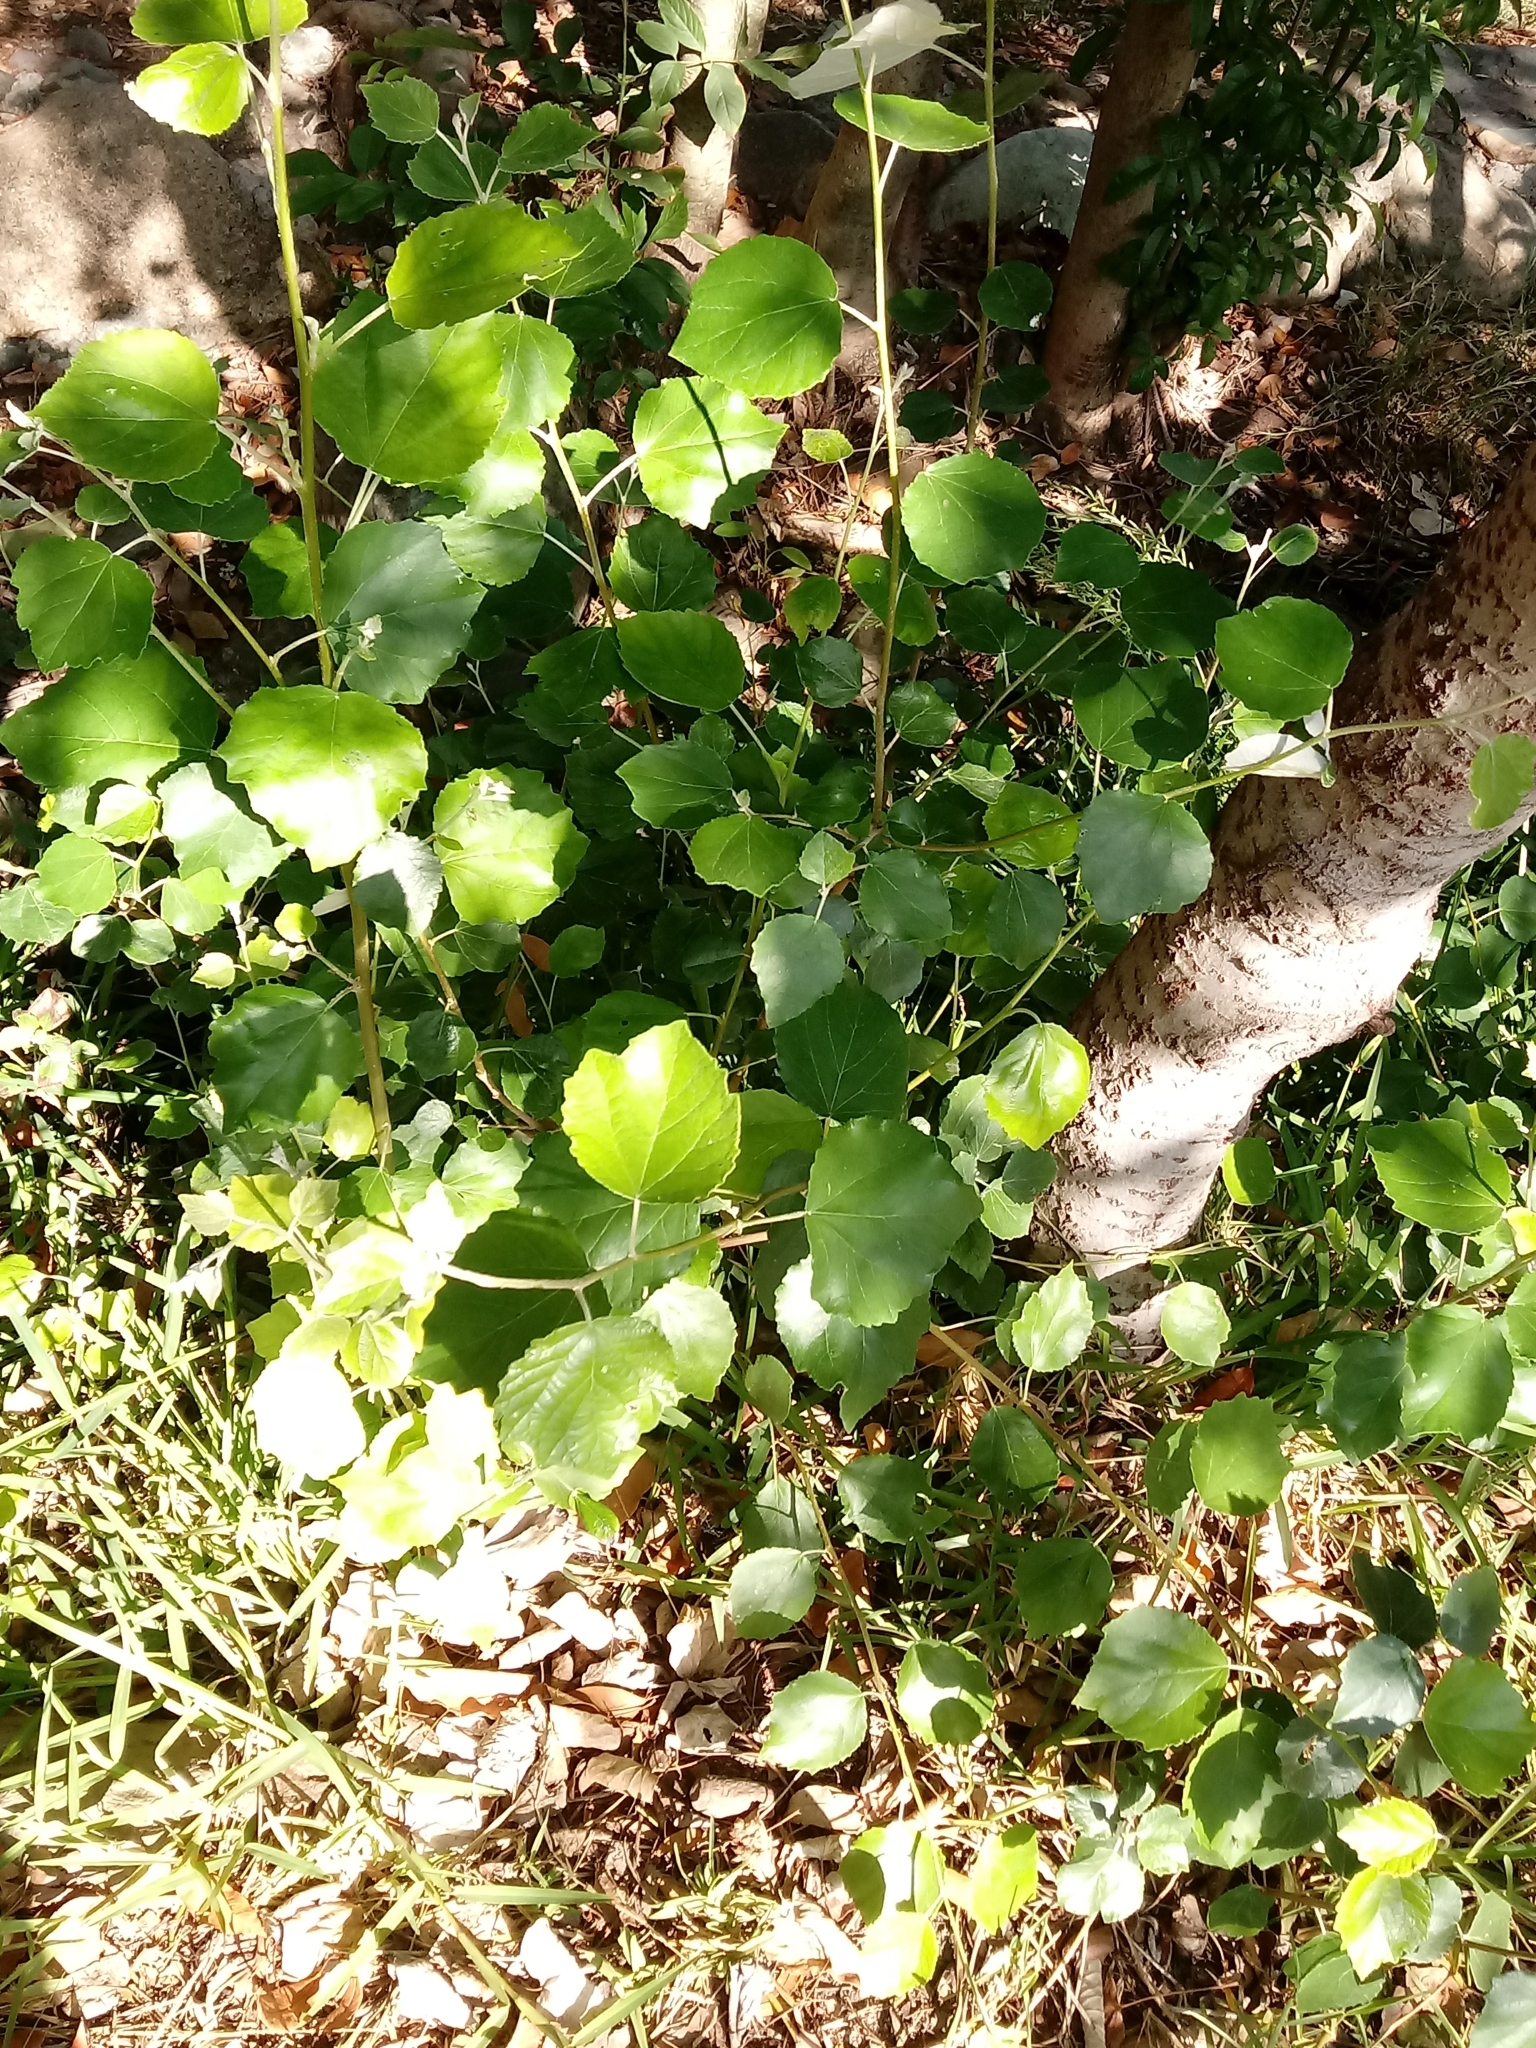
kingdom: Plantae
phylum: Tracheophyta
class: Magnoliopsida
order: Malpighiales
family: Salicaceae
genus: Populus
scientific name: Populus alba
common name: White poplar
